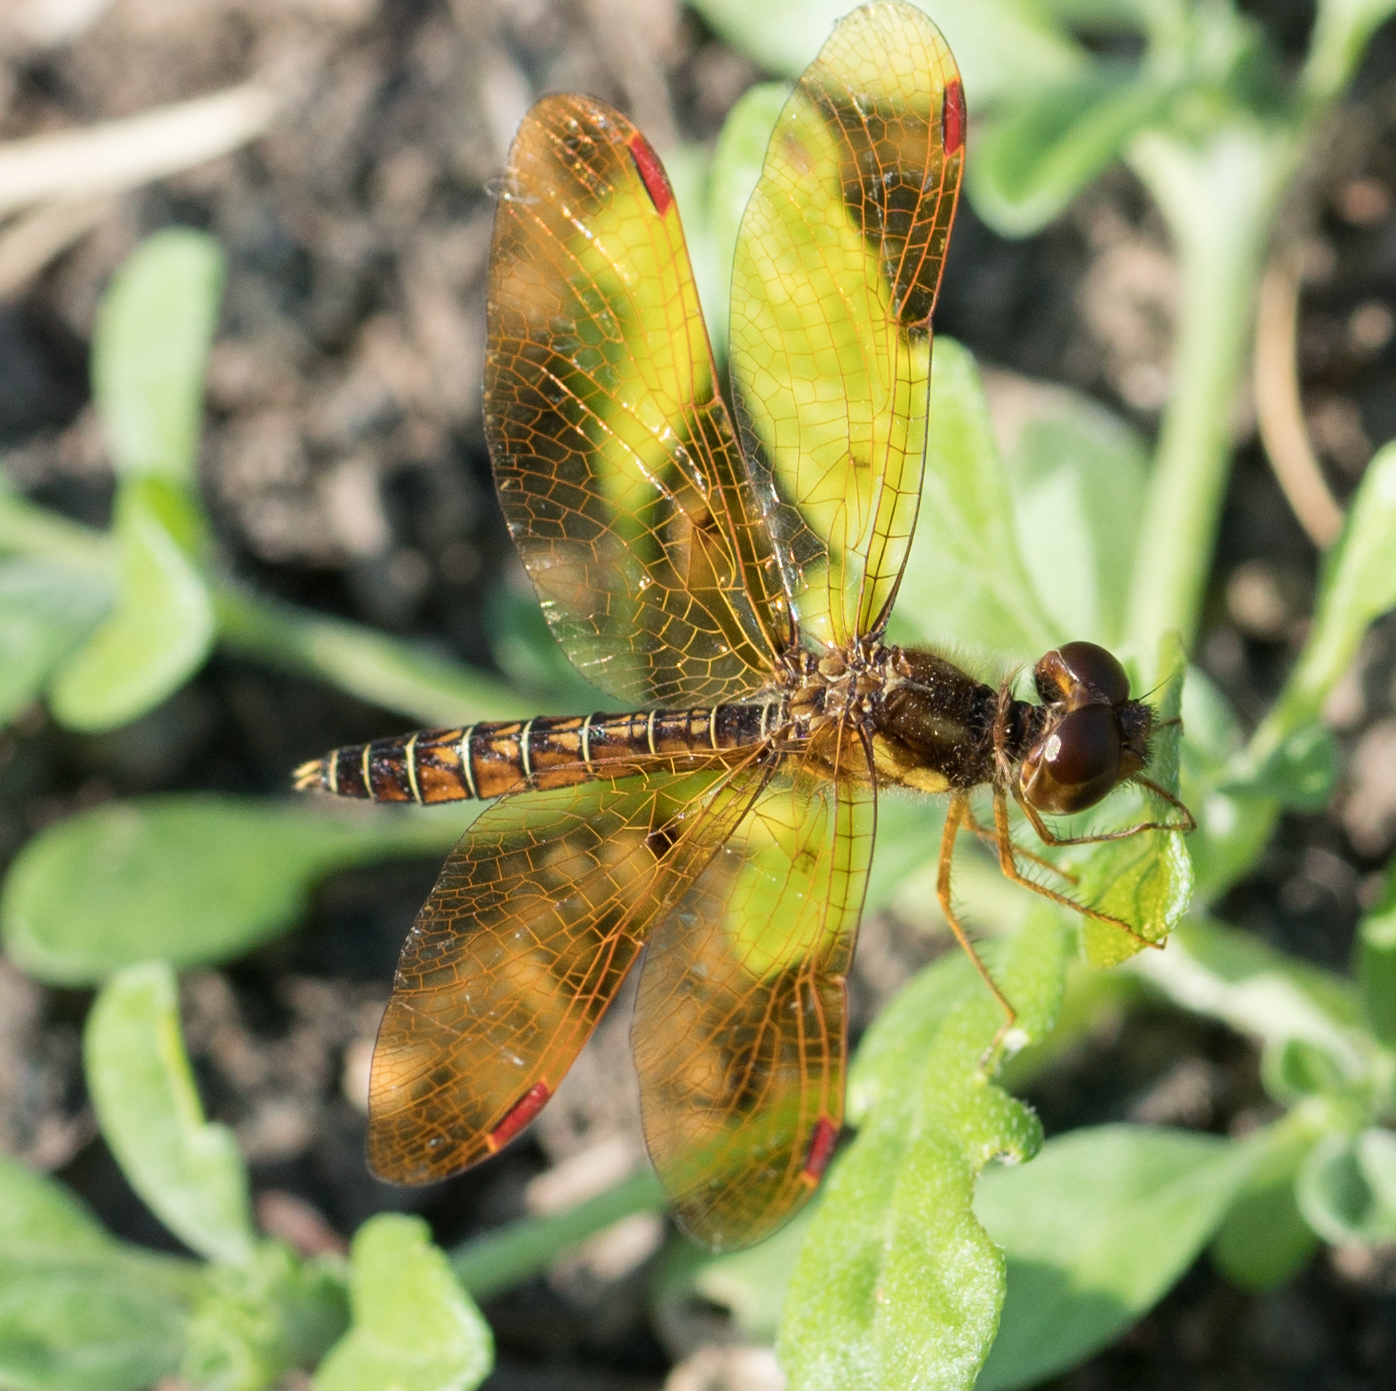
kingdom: Animalia
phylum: Arthropoda
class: Insecta
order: Odonata
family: Libellulidae
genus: Perithemis
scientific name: Perithemis tenera
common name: Eastern amberwing
